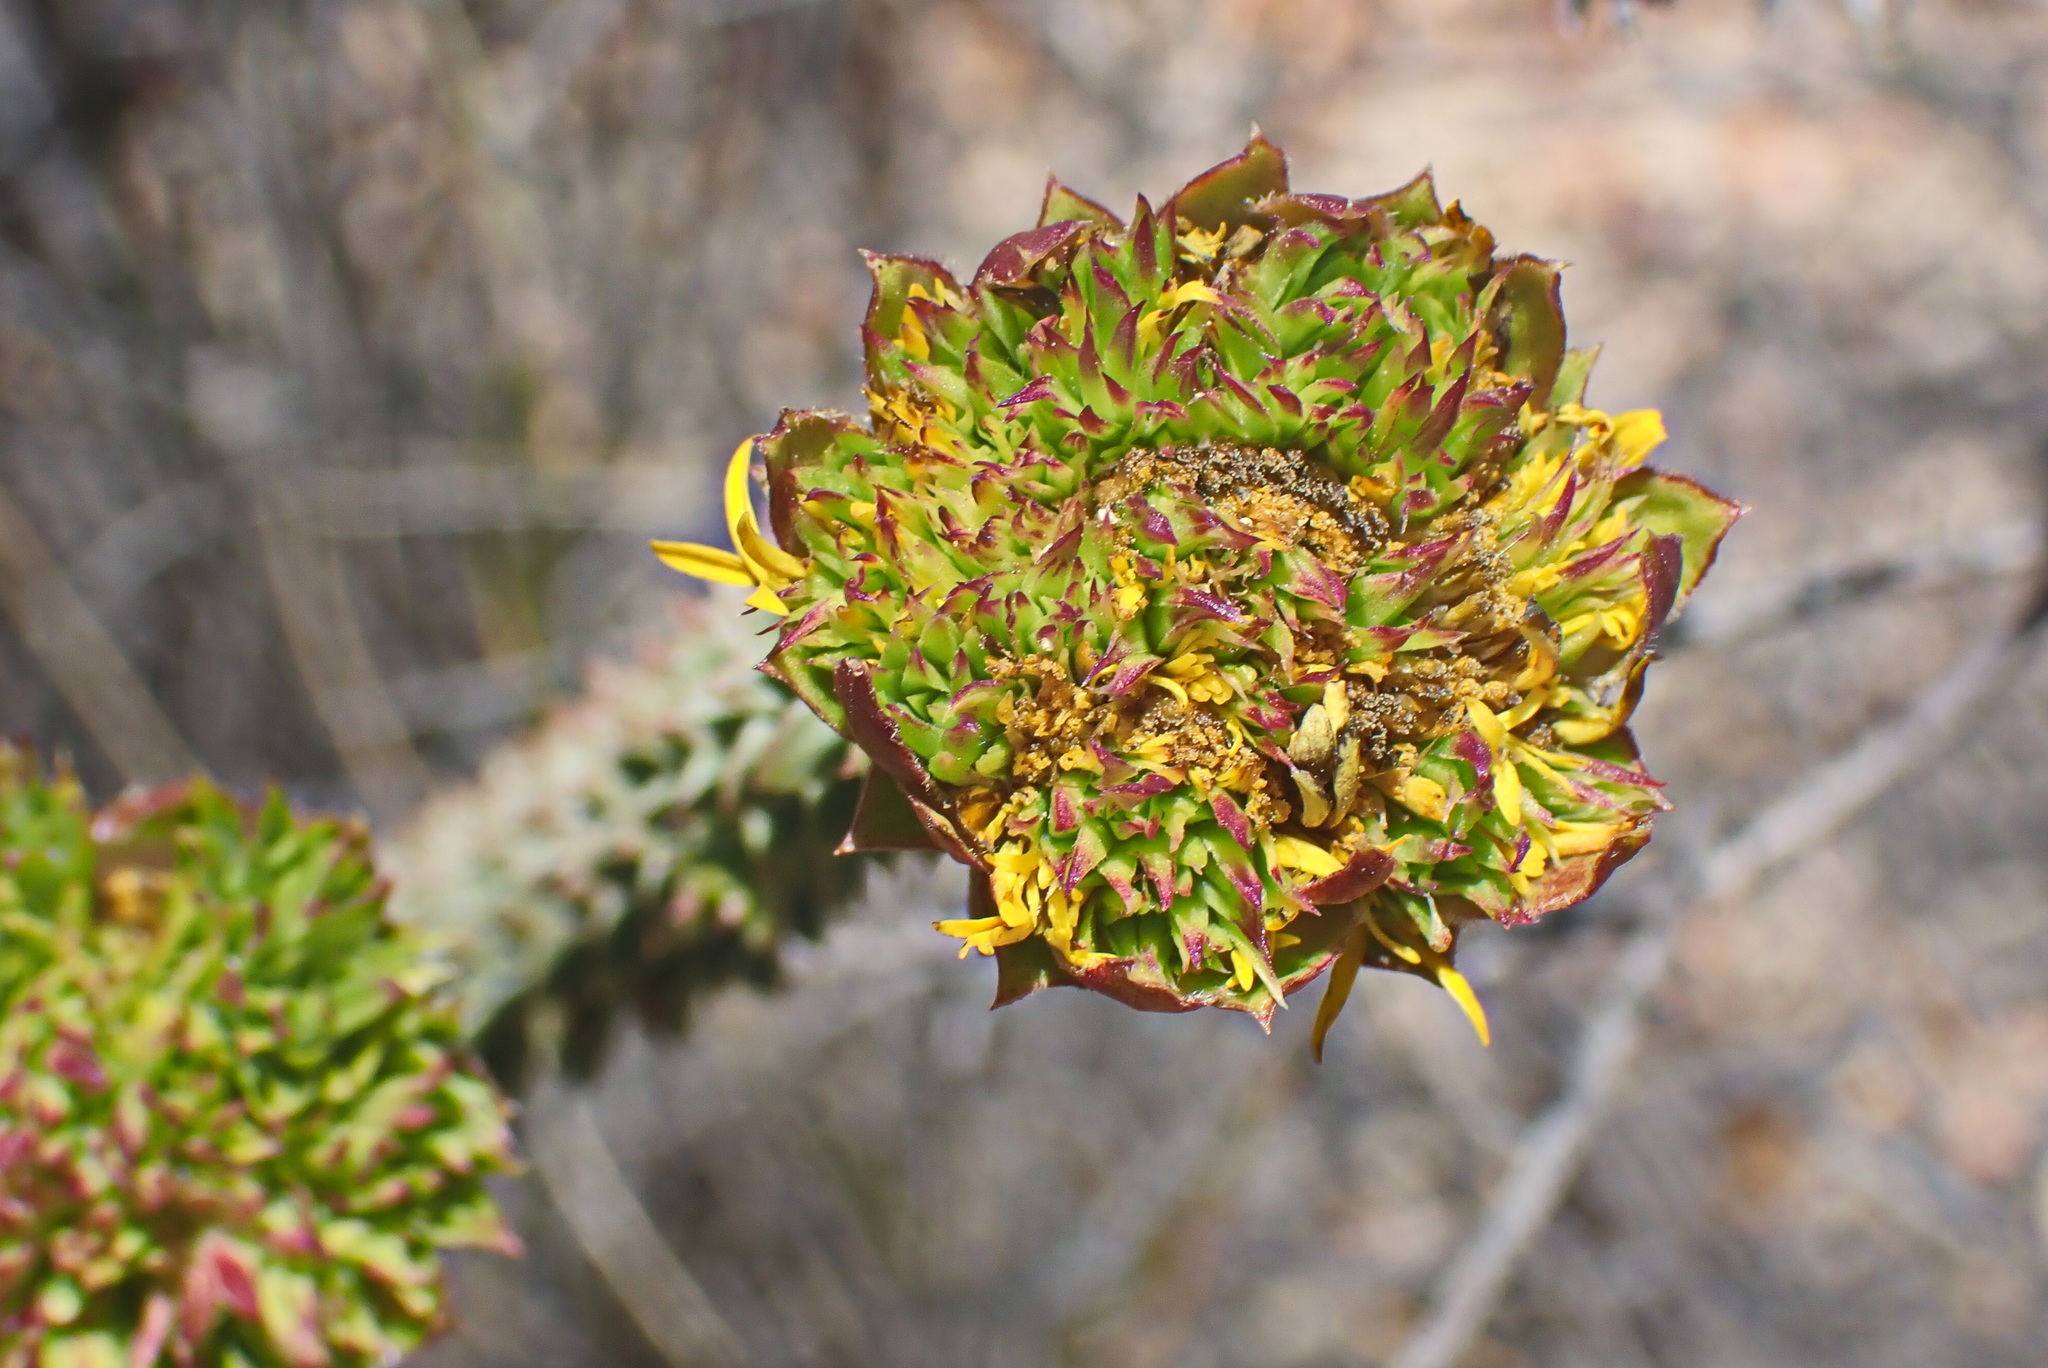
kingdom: Plantae
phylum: Tracheophyta
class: Magnoliopsida
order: Asterales
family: Asteraceae
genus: Oedera
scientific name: Oedera imbricata
